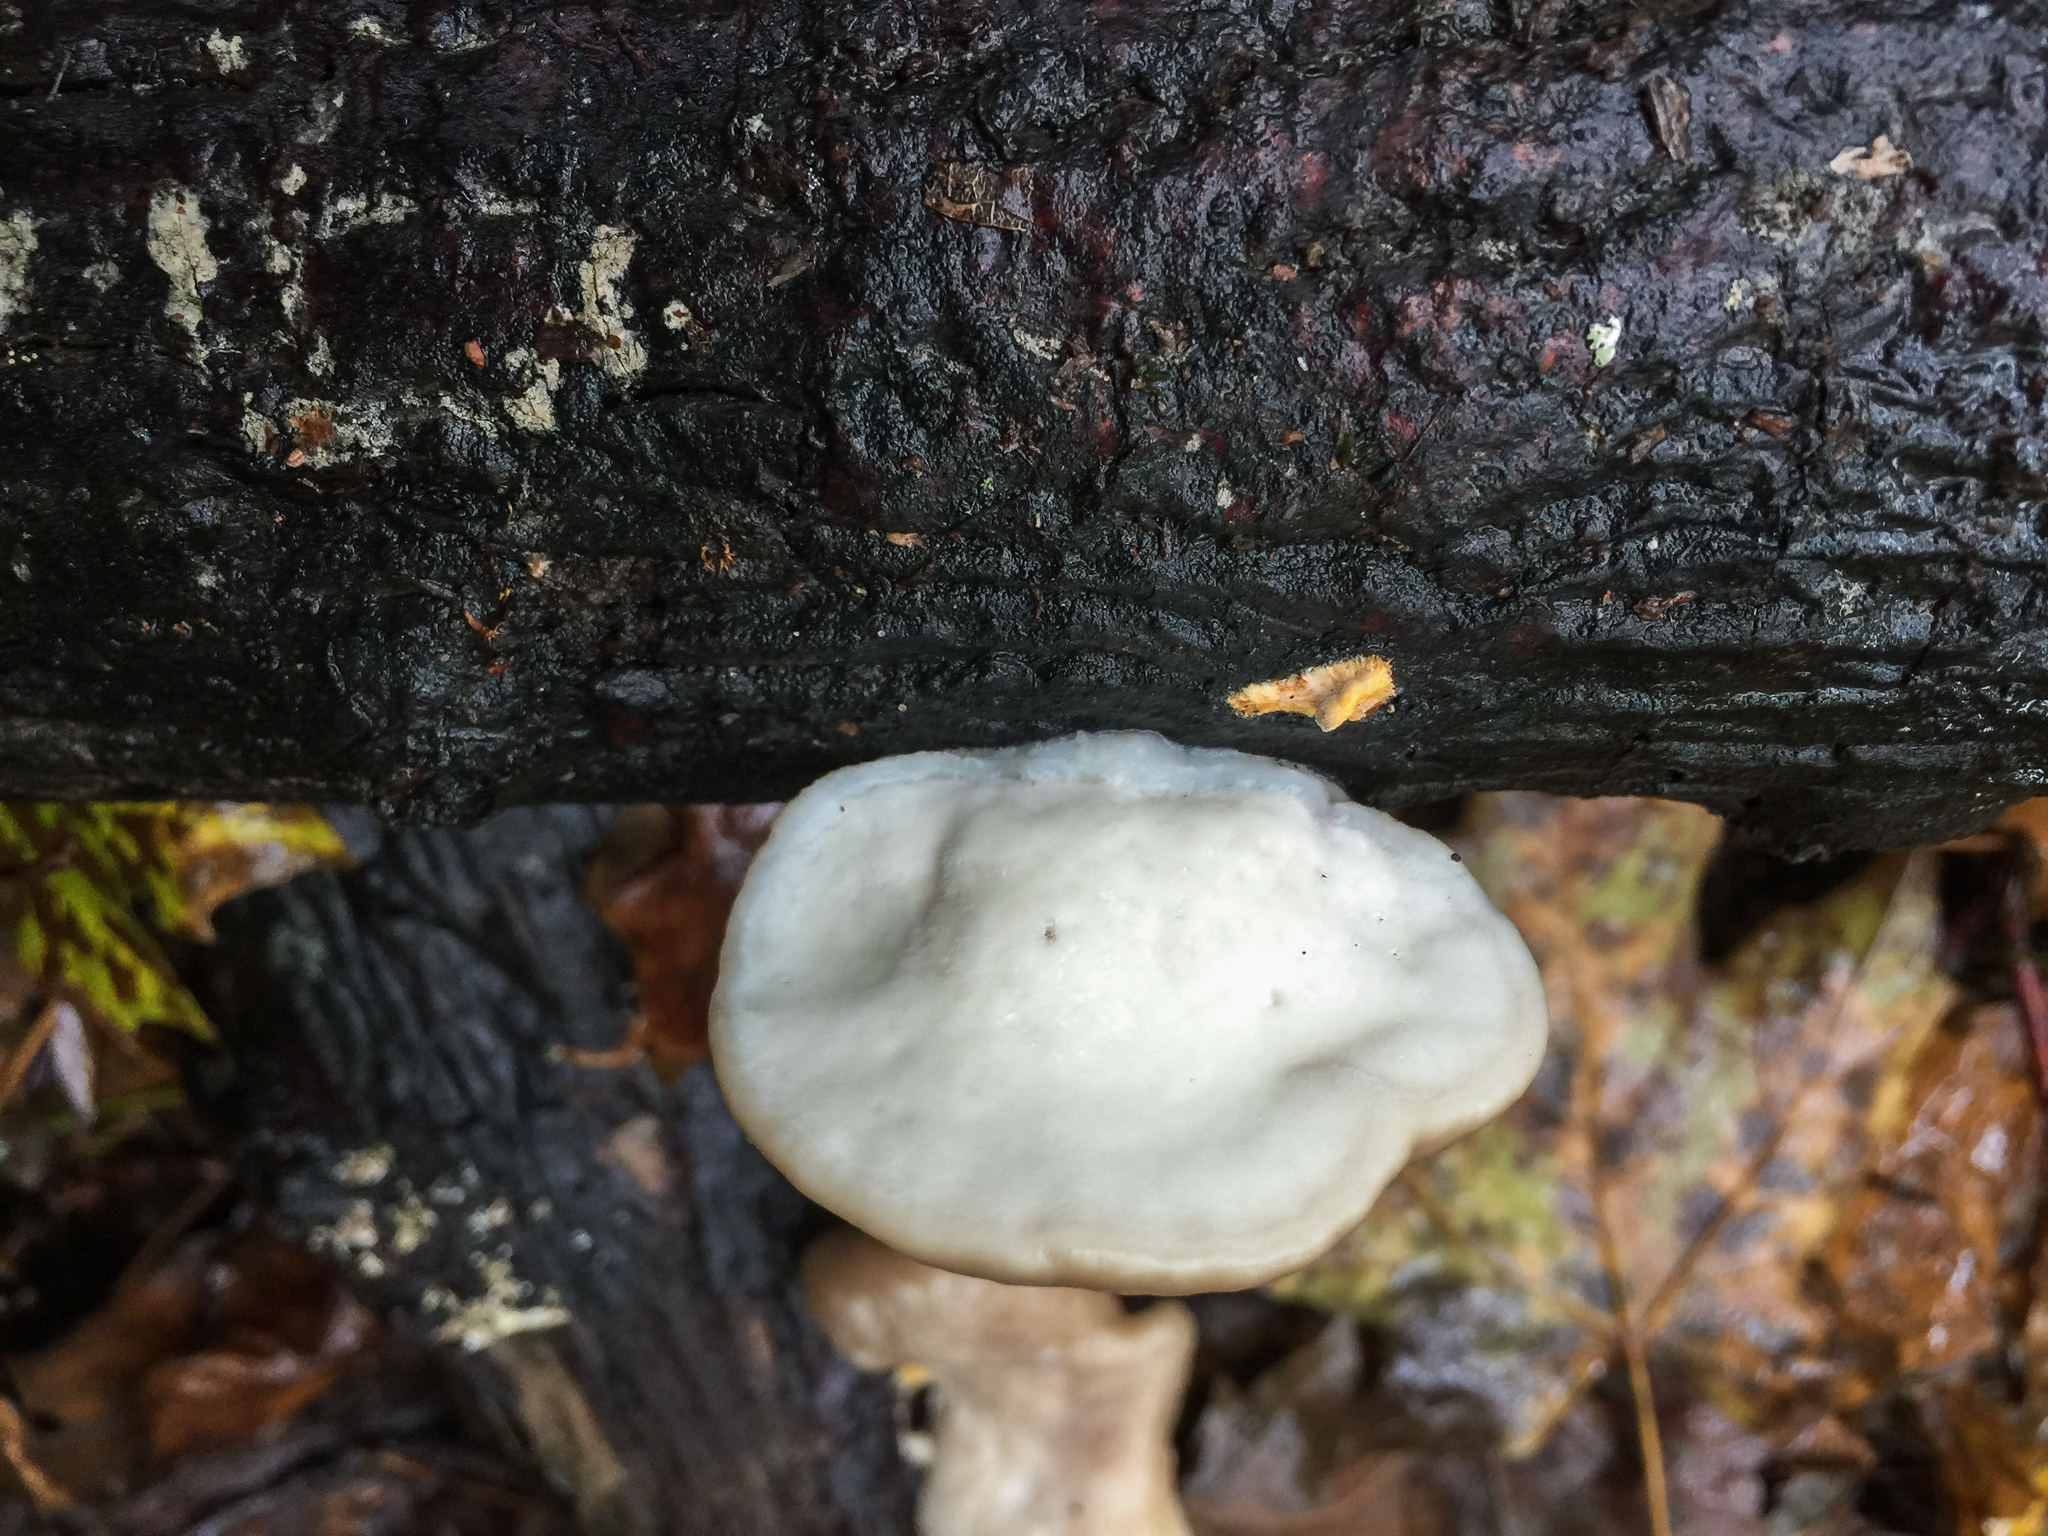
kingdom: Fungi
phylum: Basidiomycota
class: Agaricomycetes
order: Polyporales
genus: Fuscopostia
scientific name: Fuscopostia fragilis
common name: Brown-staining cheese polypore
